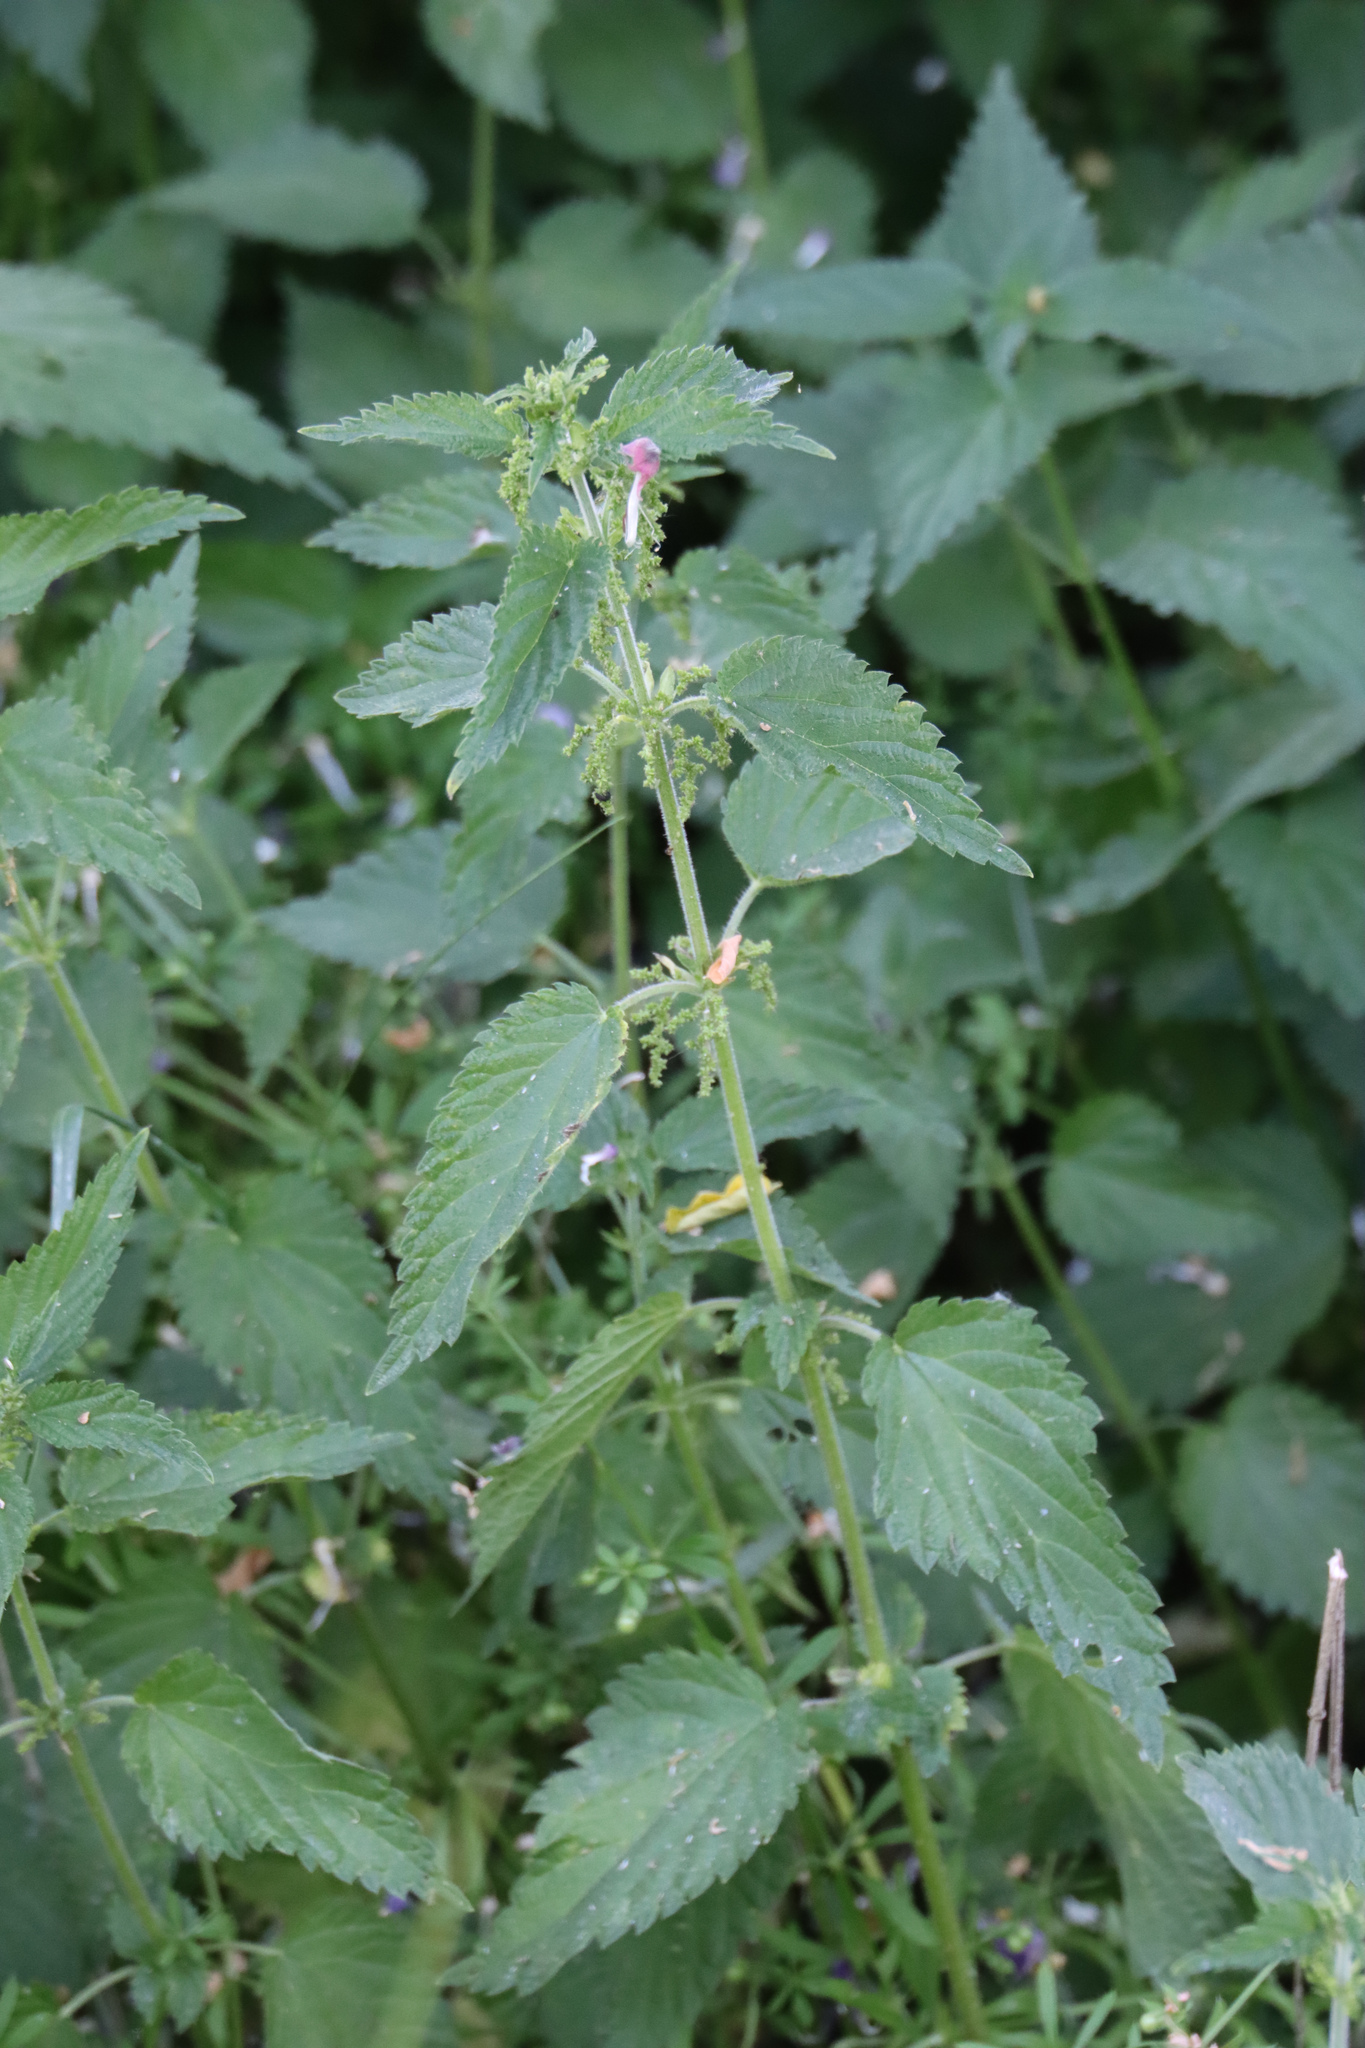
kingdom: Plantae
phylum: Tracheophyta
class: Magnoliopsida
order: Rosales
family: Urticaceae
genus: Urtica
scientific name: Urtica dioica
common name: Common nettle
